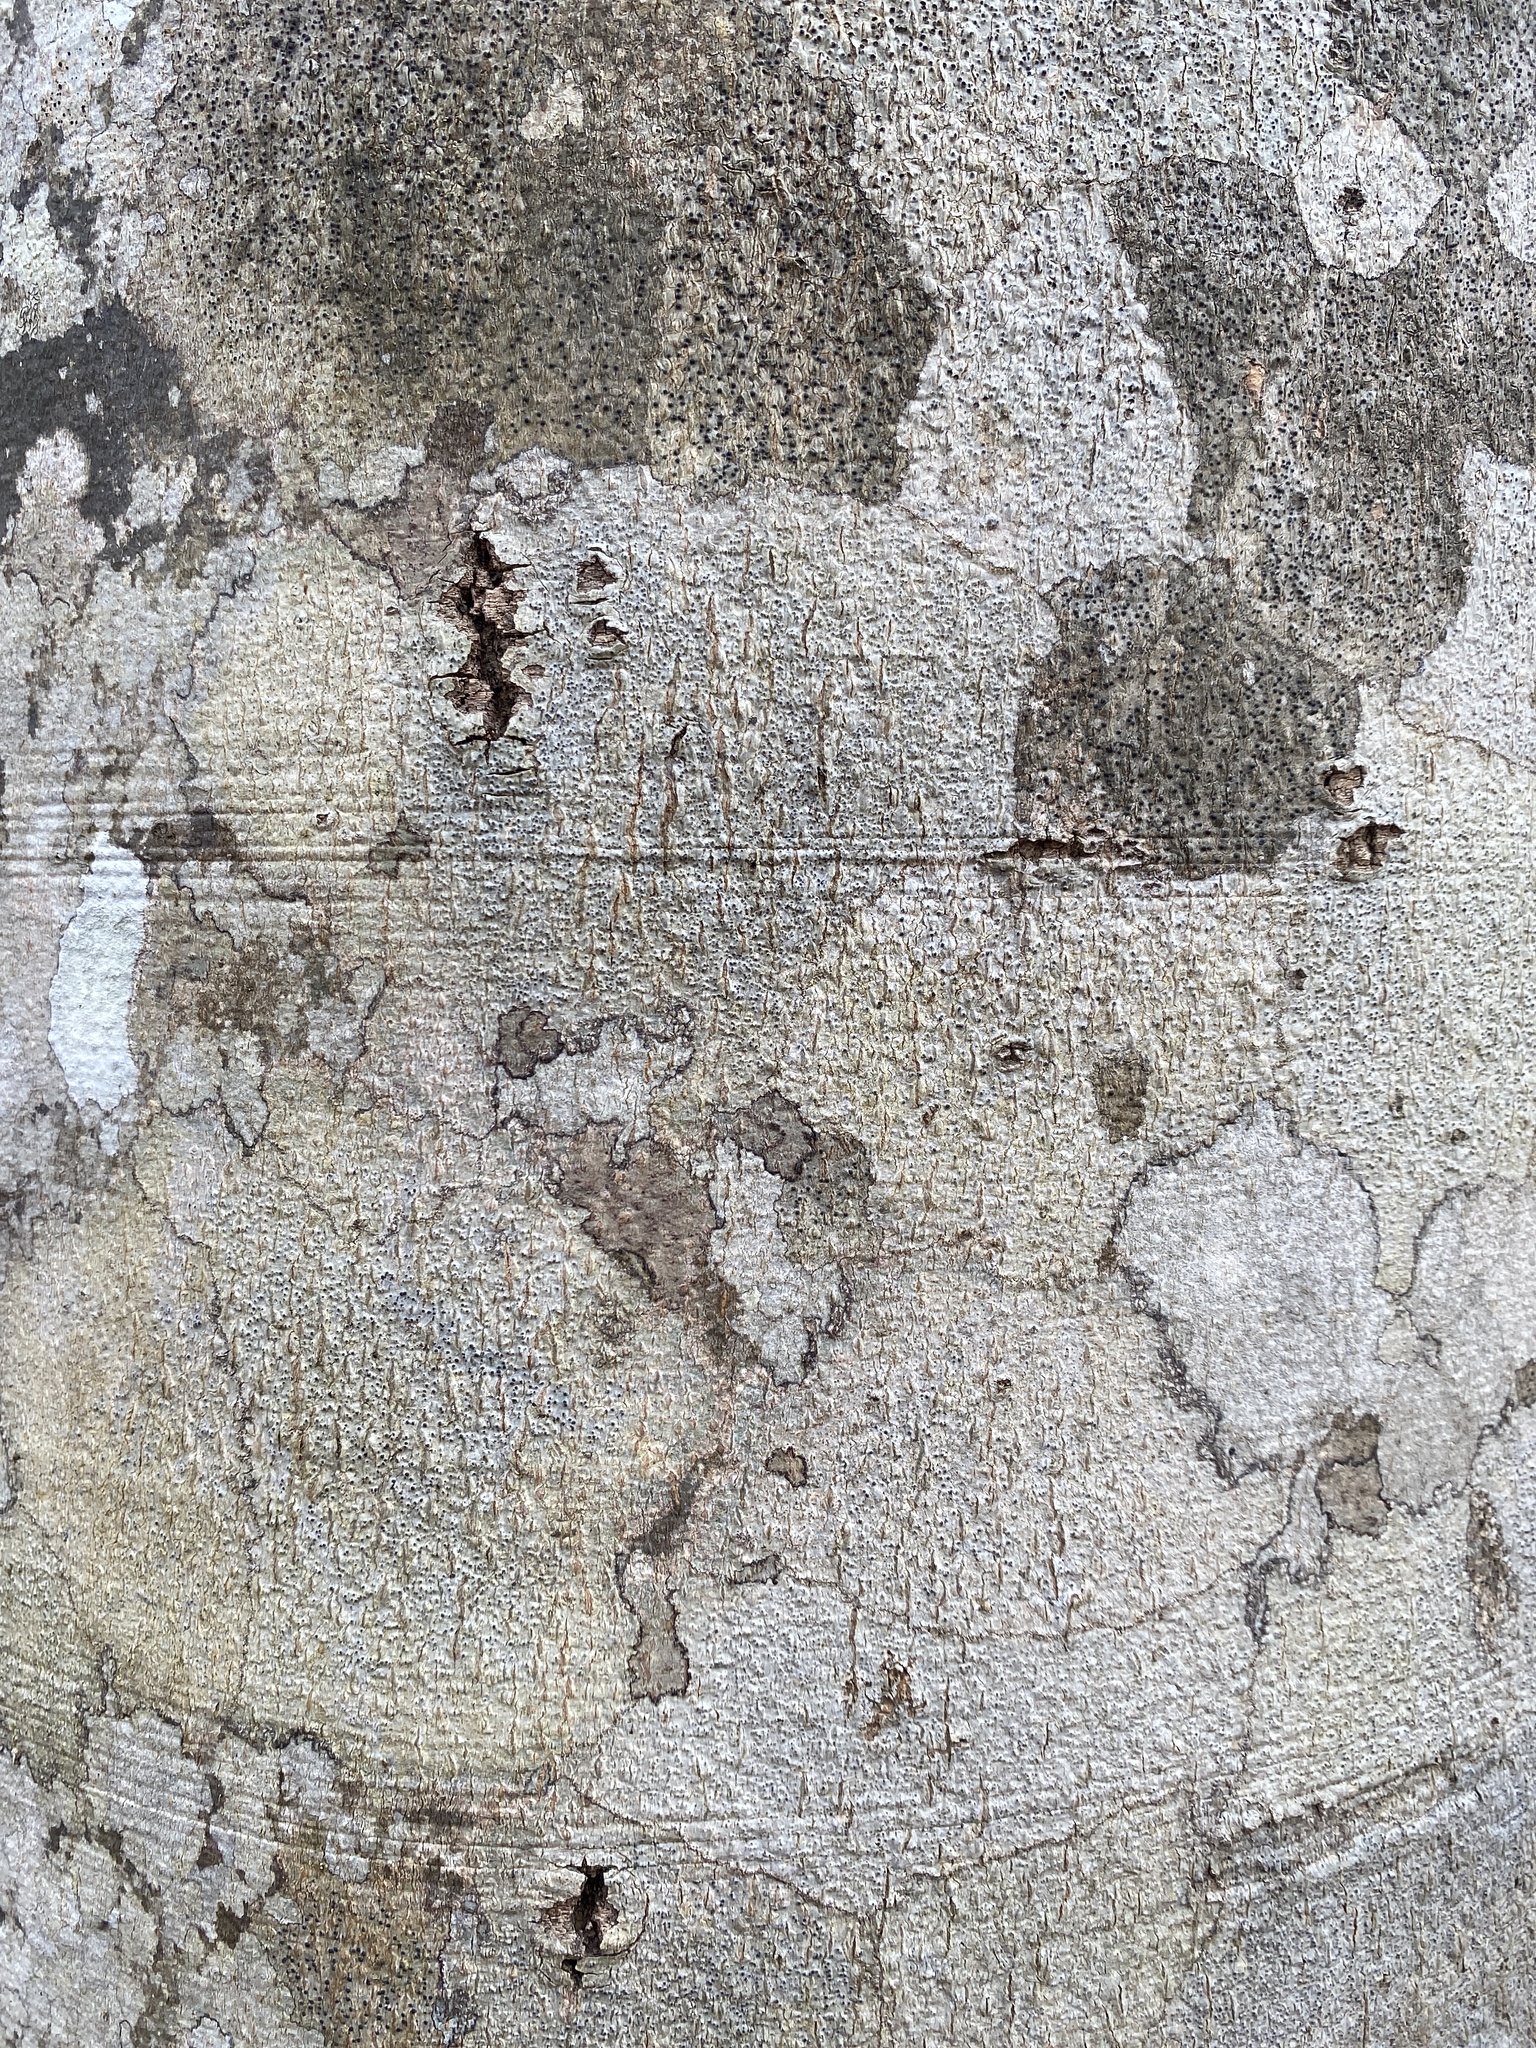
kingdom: Plantae
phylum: Tracheophyta
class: Magnoliopsida
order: Fagales
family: Fagaceae
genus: Fagus
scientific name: Fagus grandifolia
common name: American beech
